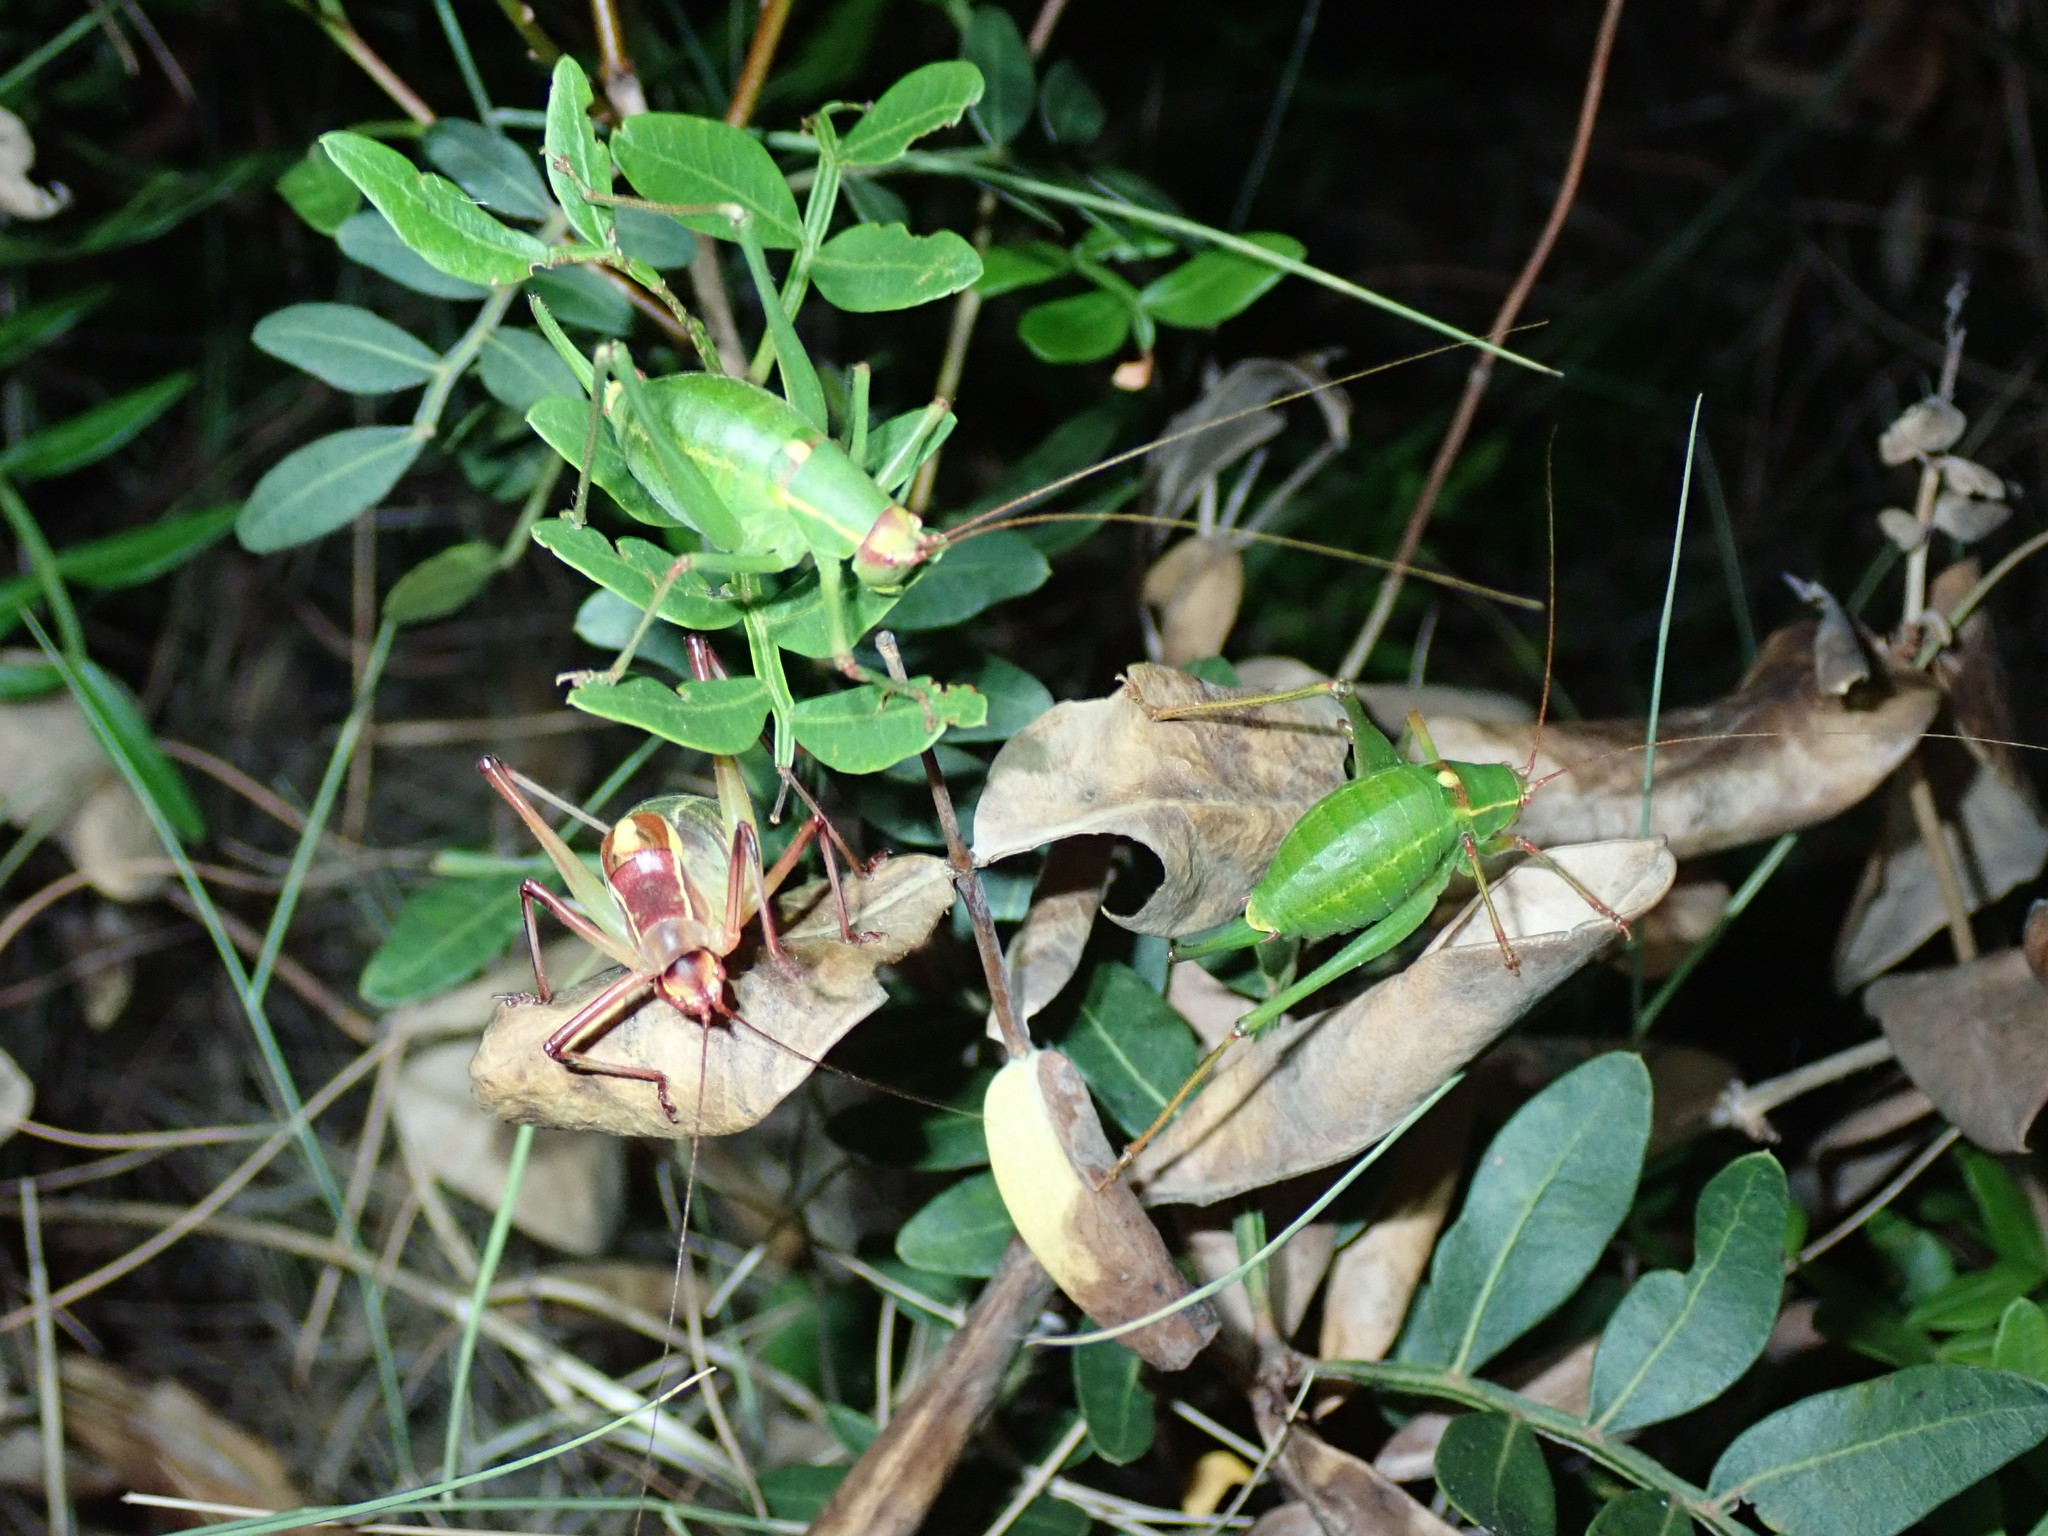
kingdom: Animalia
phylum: Arthropoda
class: Insecta
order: Orthoptera
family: Tettigoniidae
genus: Barbitistes
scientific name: Barbitistes yersini
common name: Balkan saw bush-cricket
